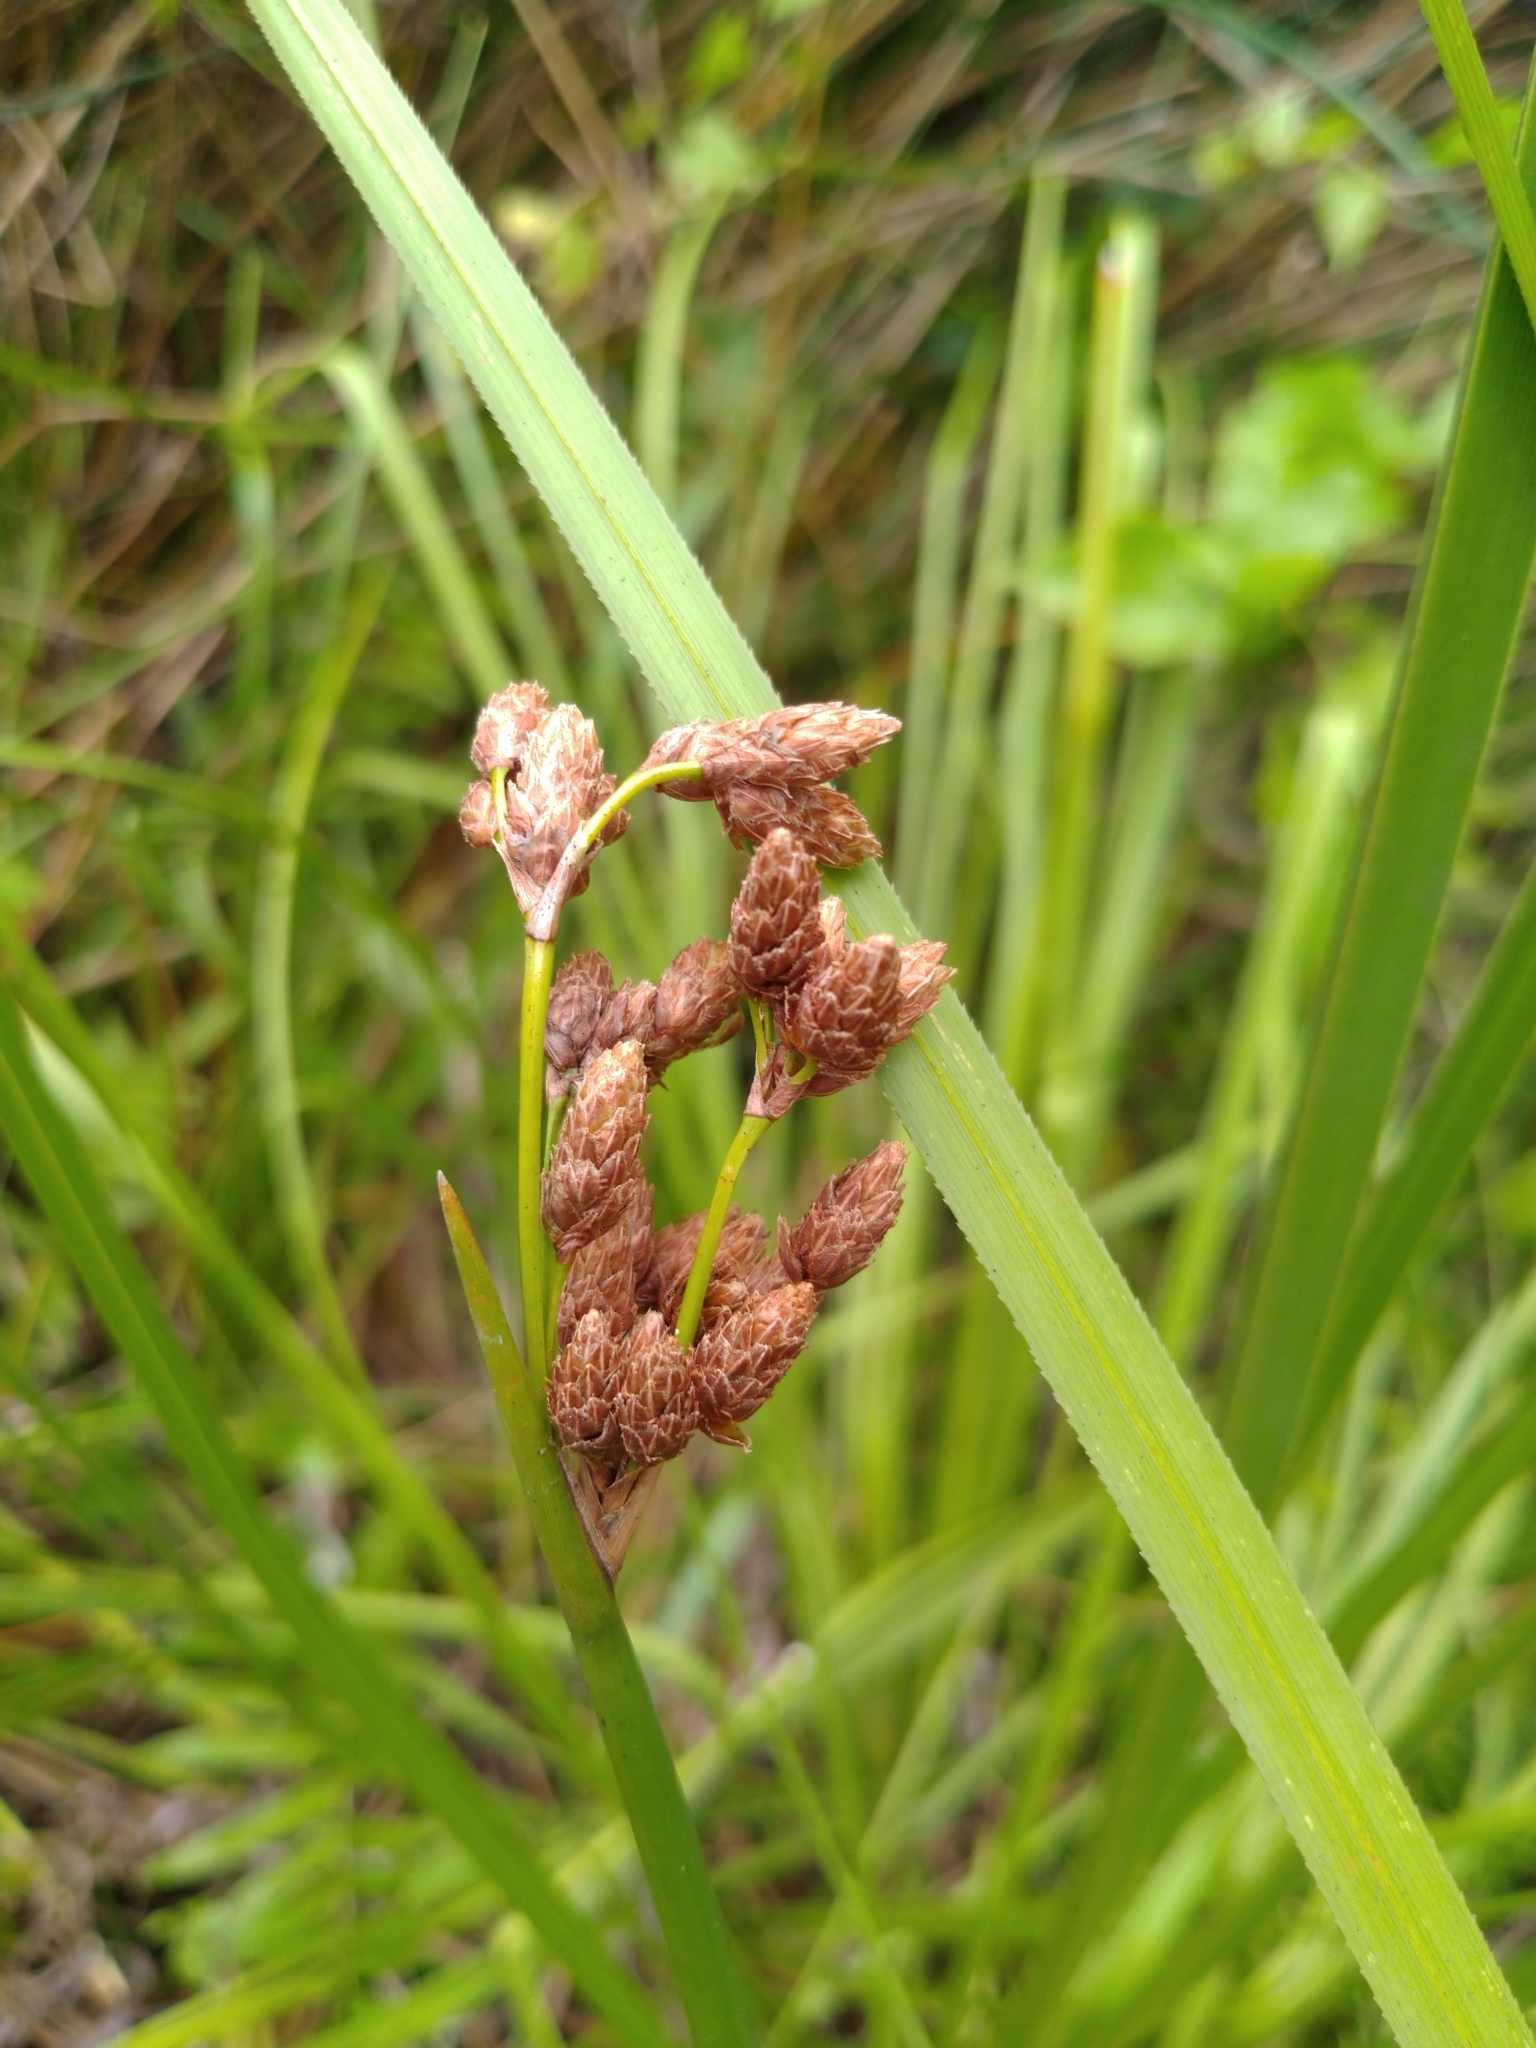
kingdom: Plantae
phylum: Tracheophyta
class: Liliopsida
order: Poales
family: Cyperaceae
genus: Schoenoplectus
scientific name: Schoenoplectus tabernaemontani
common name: Grey club-rush
